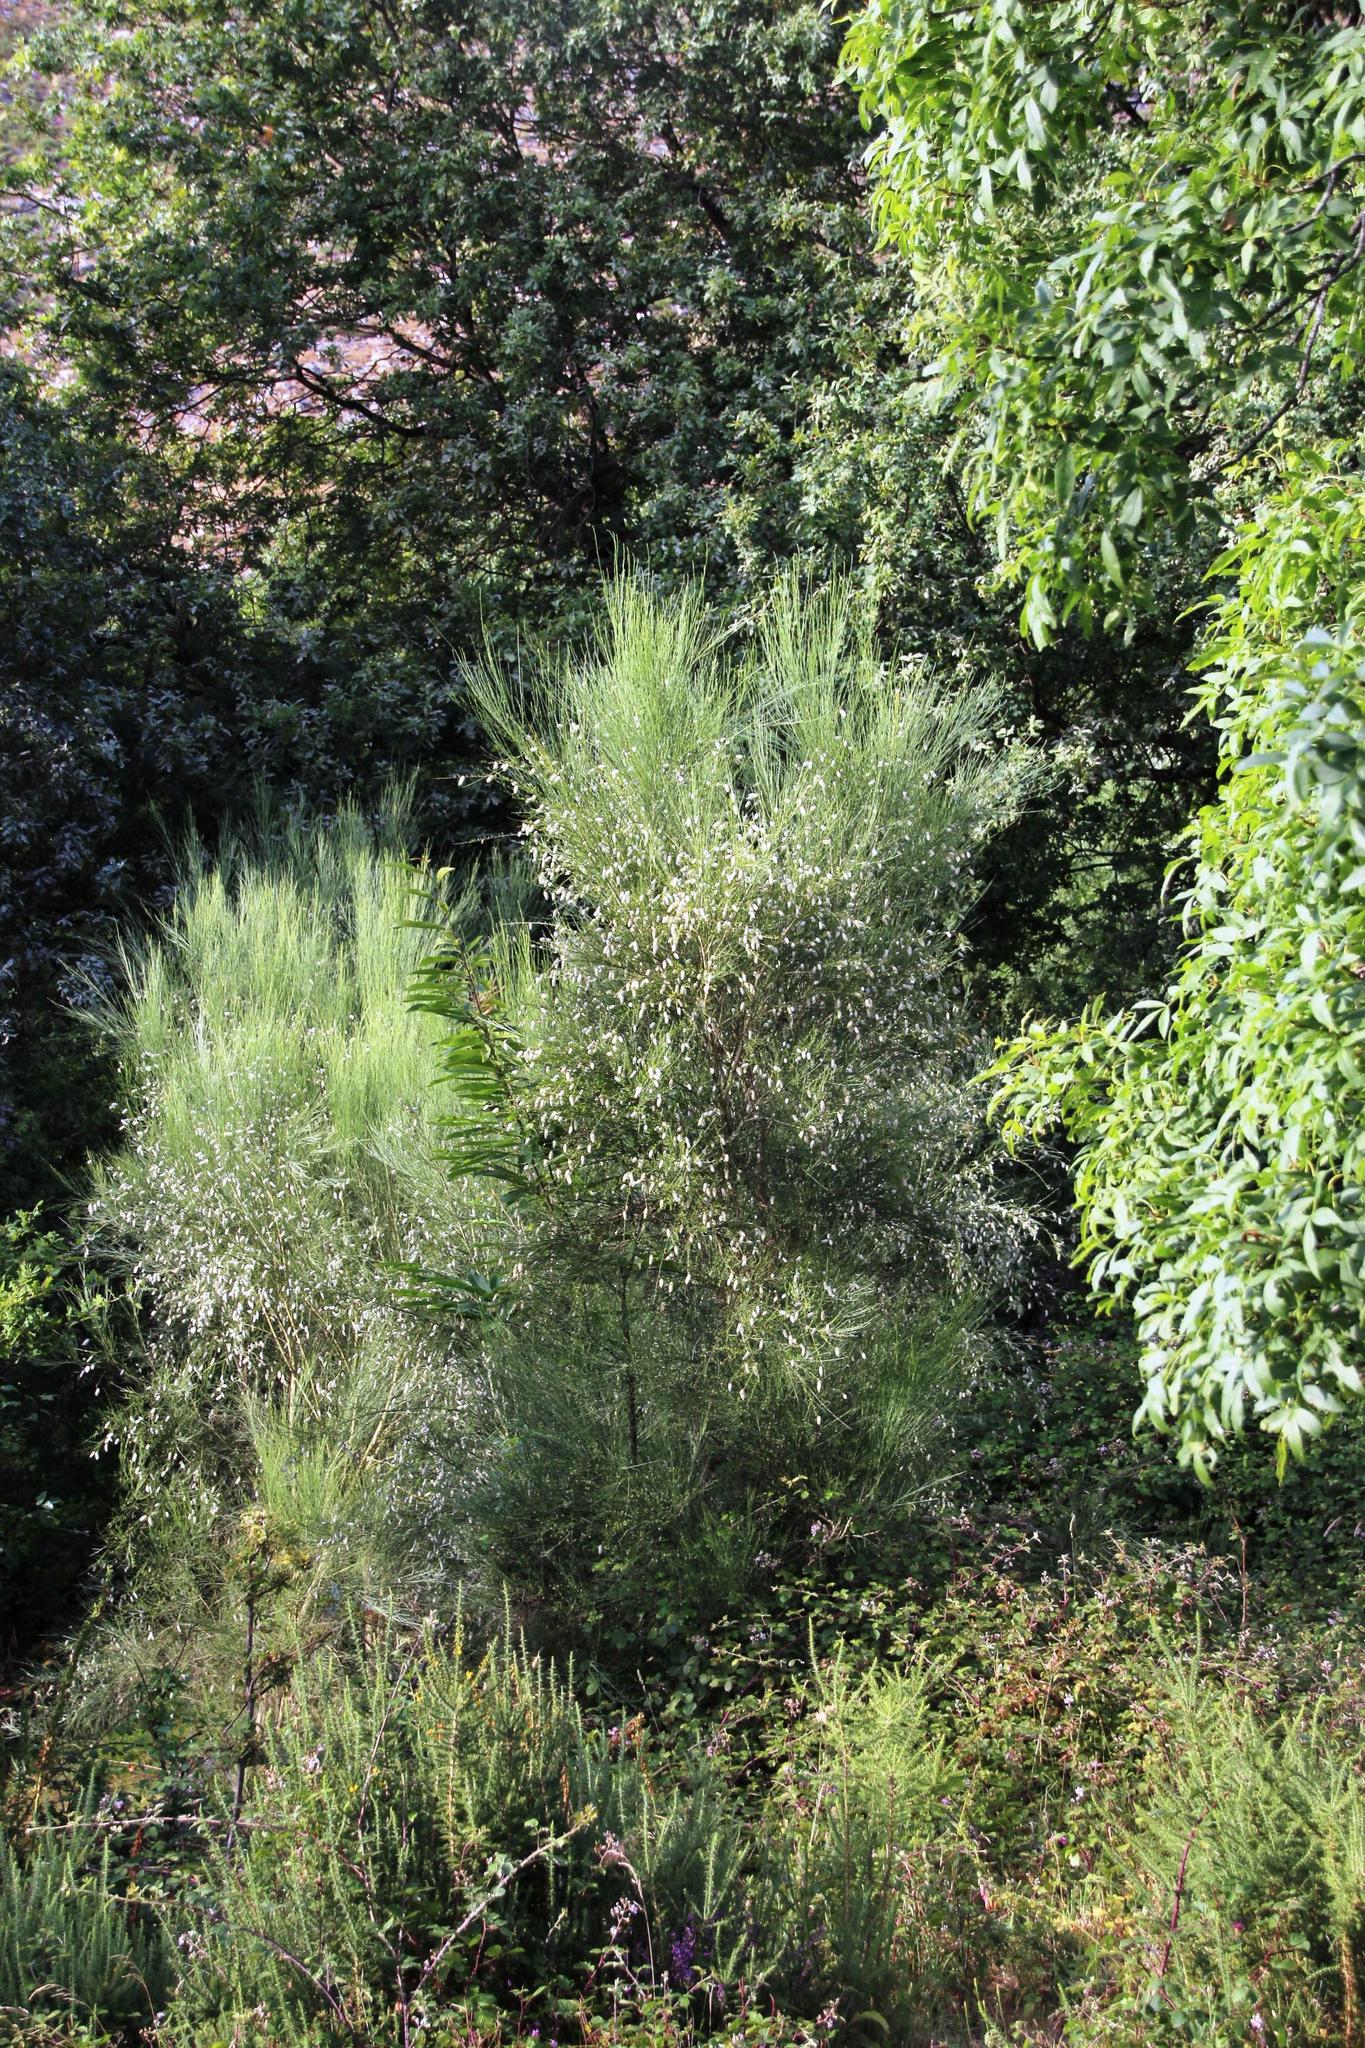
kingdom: Plantae
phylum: Tracheophyta
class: Magnoliopsida
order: Fabales
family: Fabaceae
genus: Cytisus
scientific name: Cytisus striatus
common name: Hairy-fruited broom
